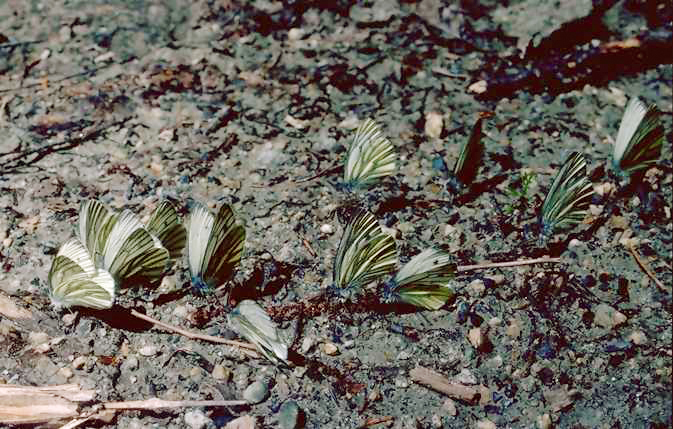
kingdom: Animalia
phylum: Arthropoda
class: Insecta
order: Lepidoptera
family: Pieridae
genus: Pieris
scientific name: Pieris napi
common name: Green-veined white
